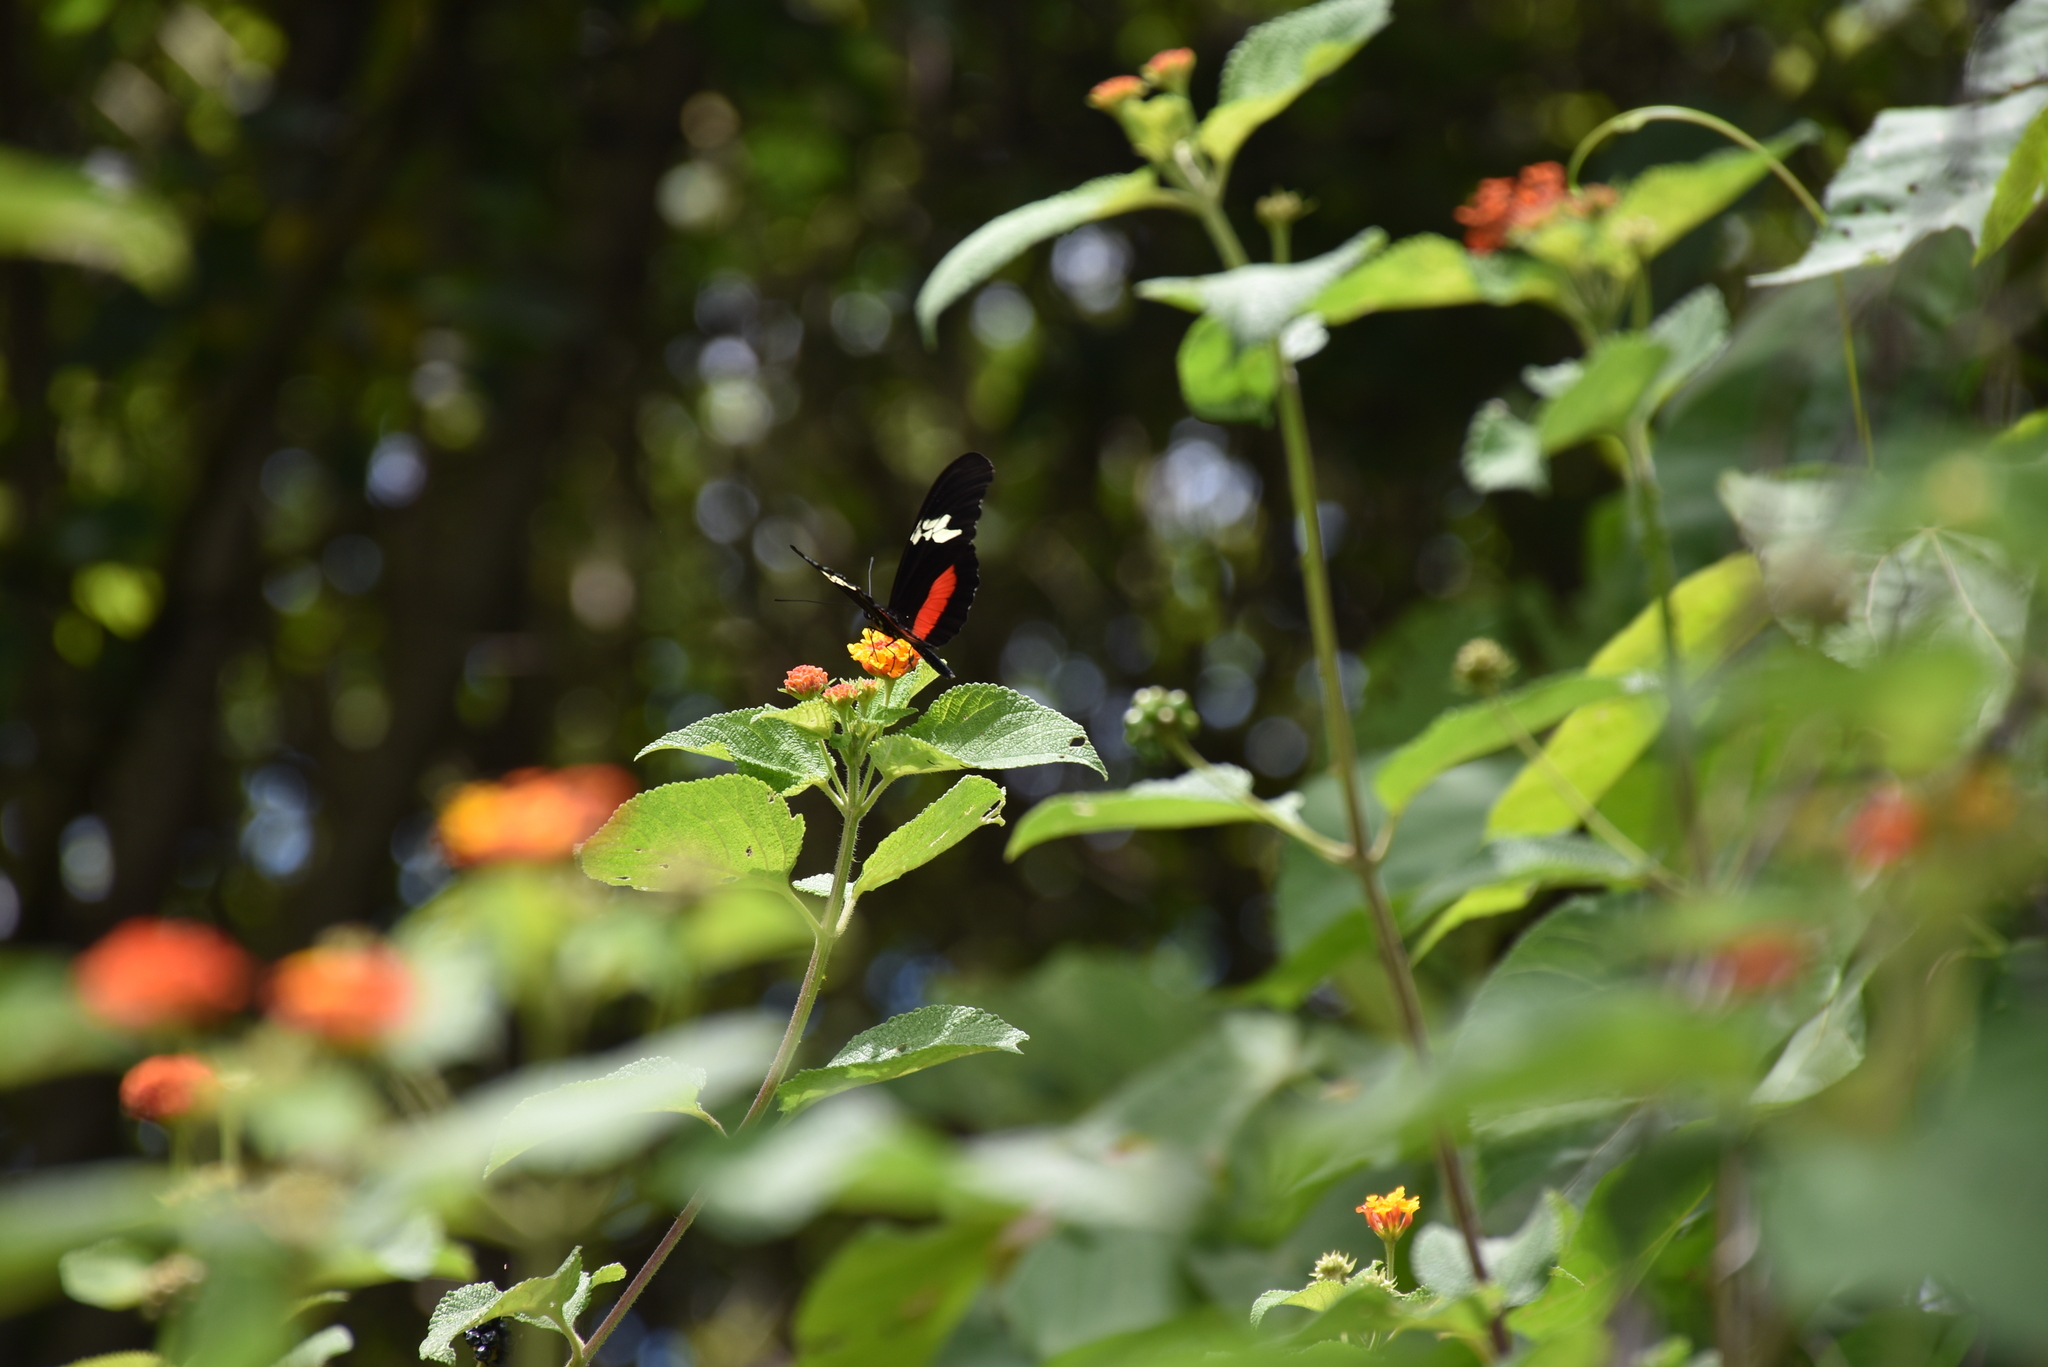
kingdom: Animalia
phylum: Arthropoda
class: Insecta
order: Lepidoptera
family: Nymphalidae
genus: Heliconius
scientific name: Heliconius hortense
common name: Mexican longwing
